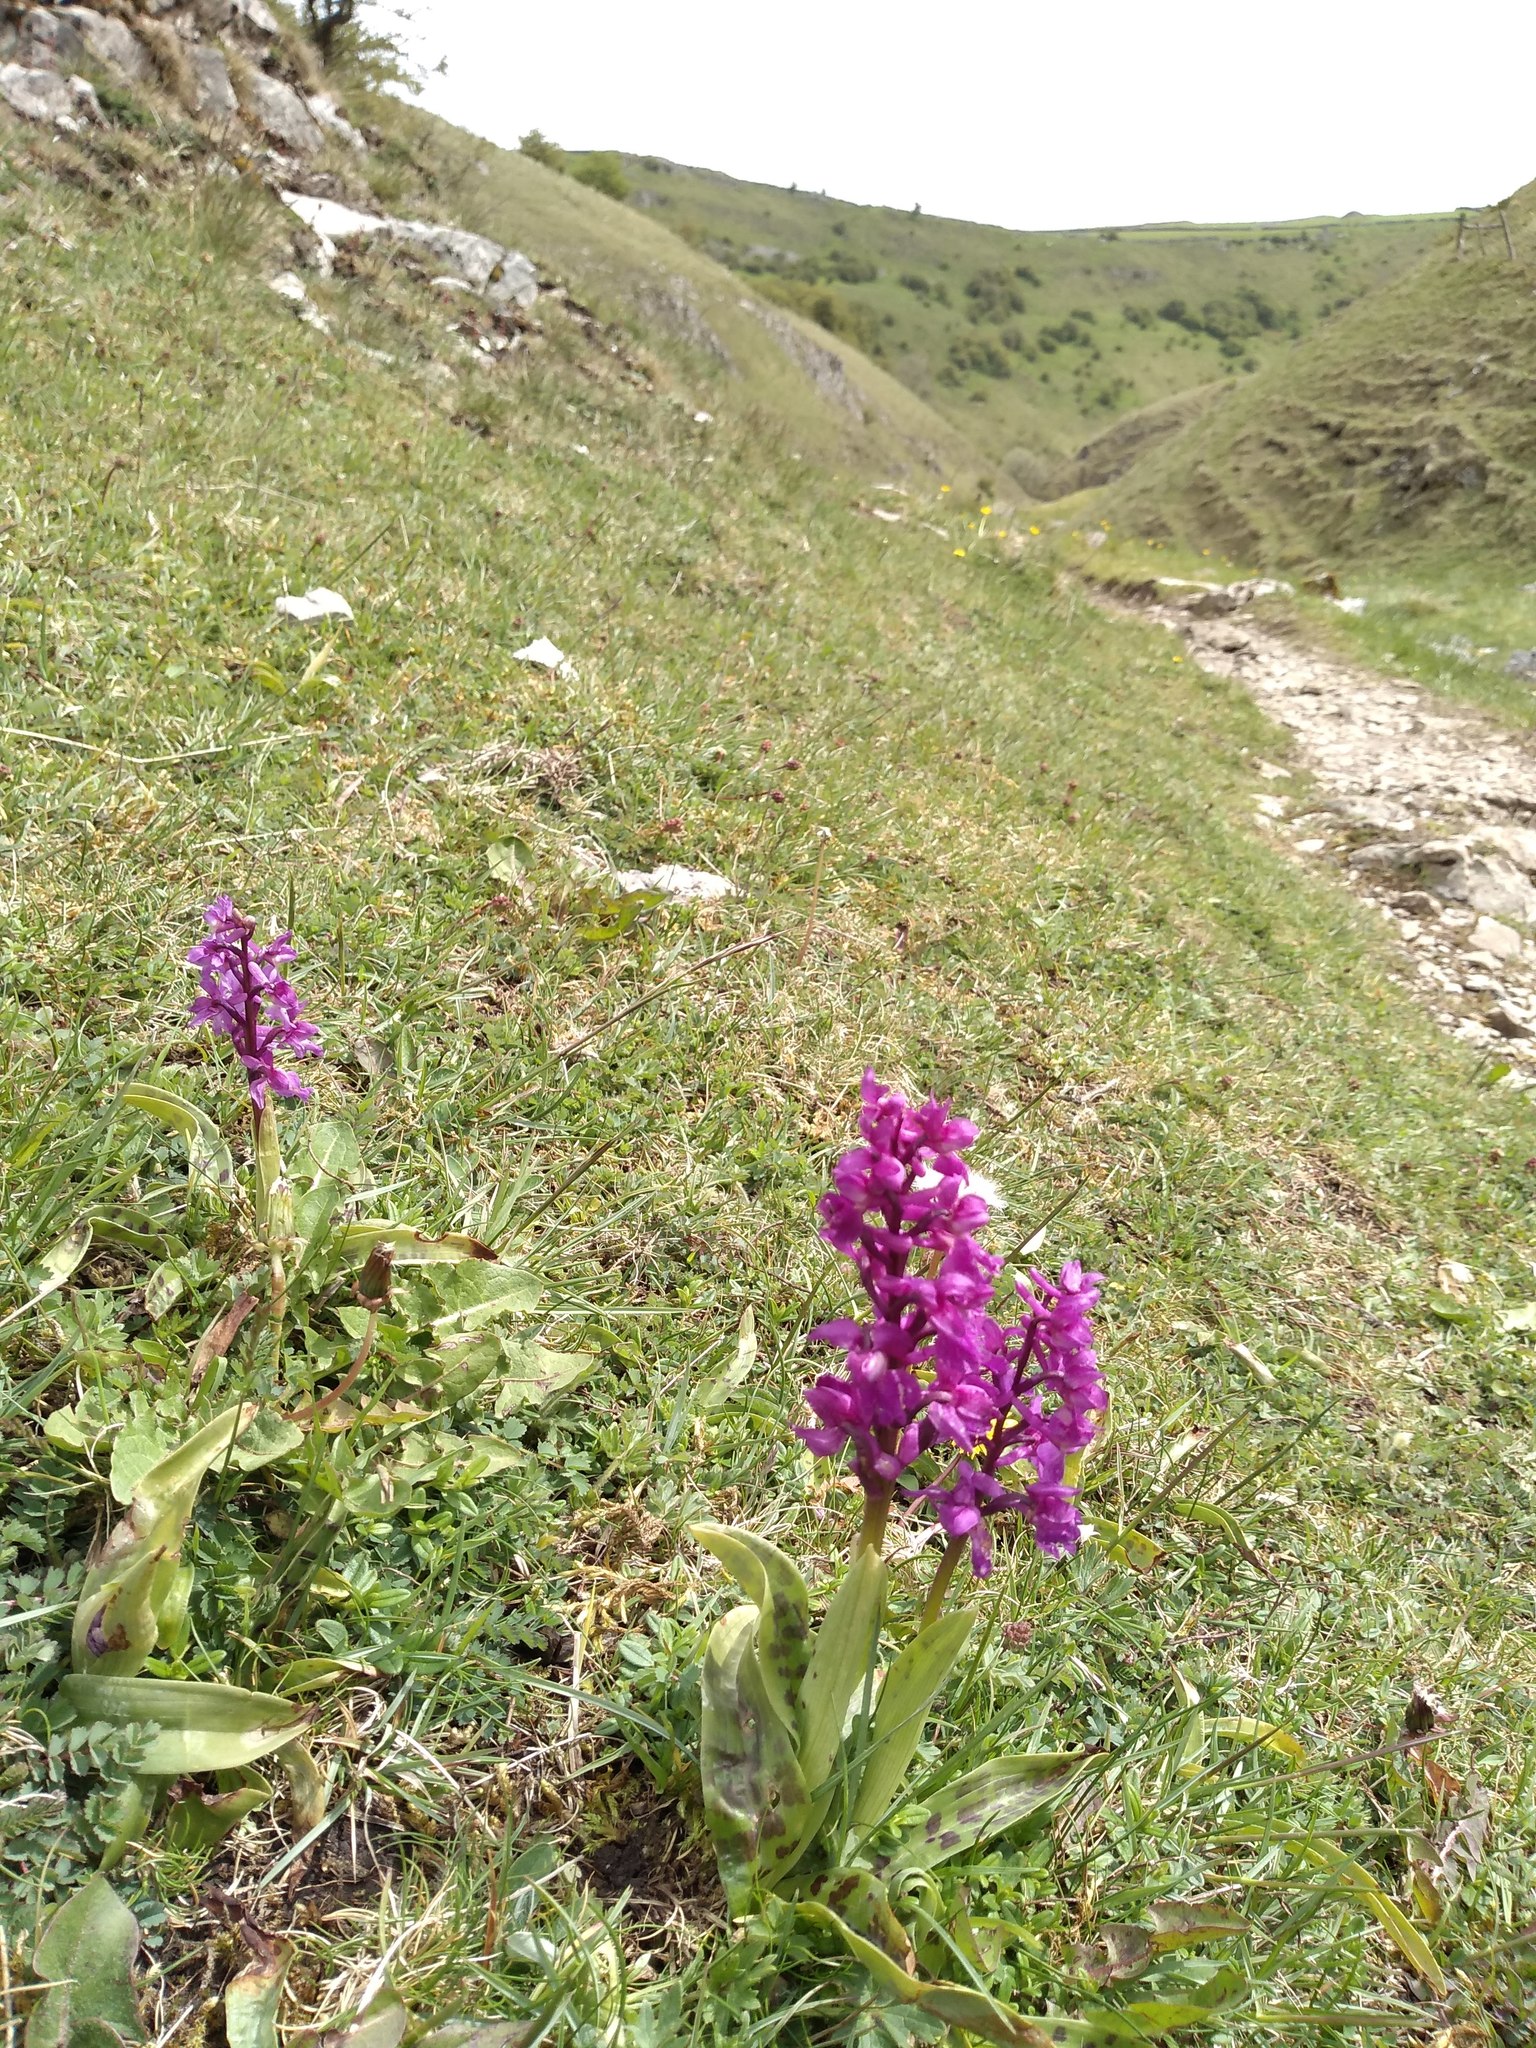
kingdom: Plantae
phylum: Tracheophyta
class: Liliopsida
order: Asparagales
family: Orchidaceae
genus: Orchis
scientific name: Orchis mascula
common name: Early-purple orchid
